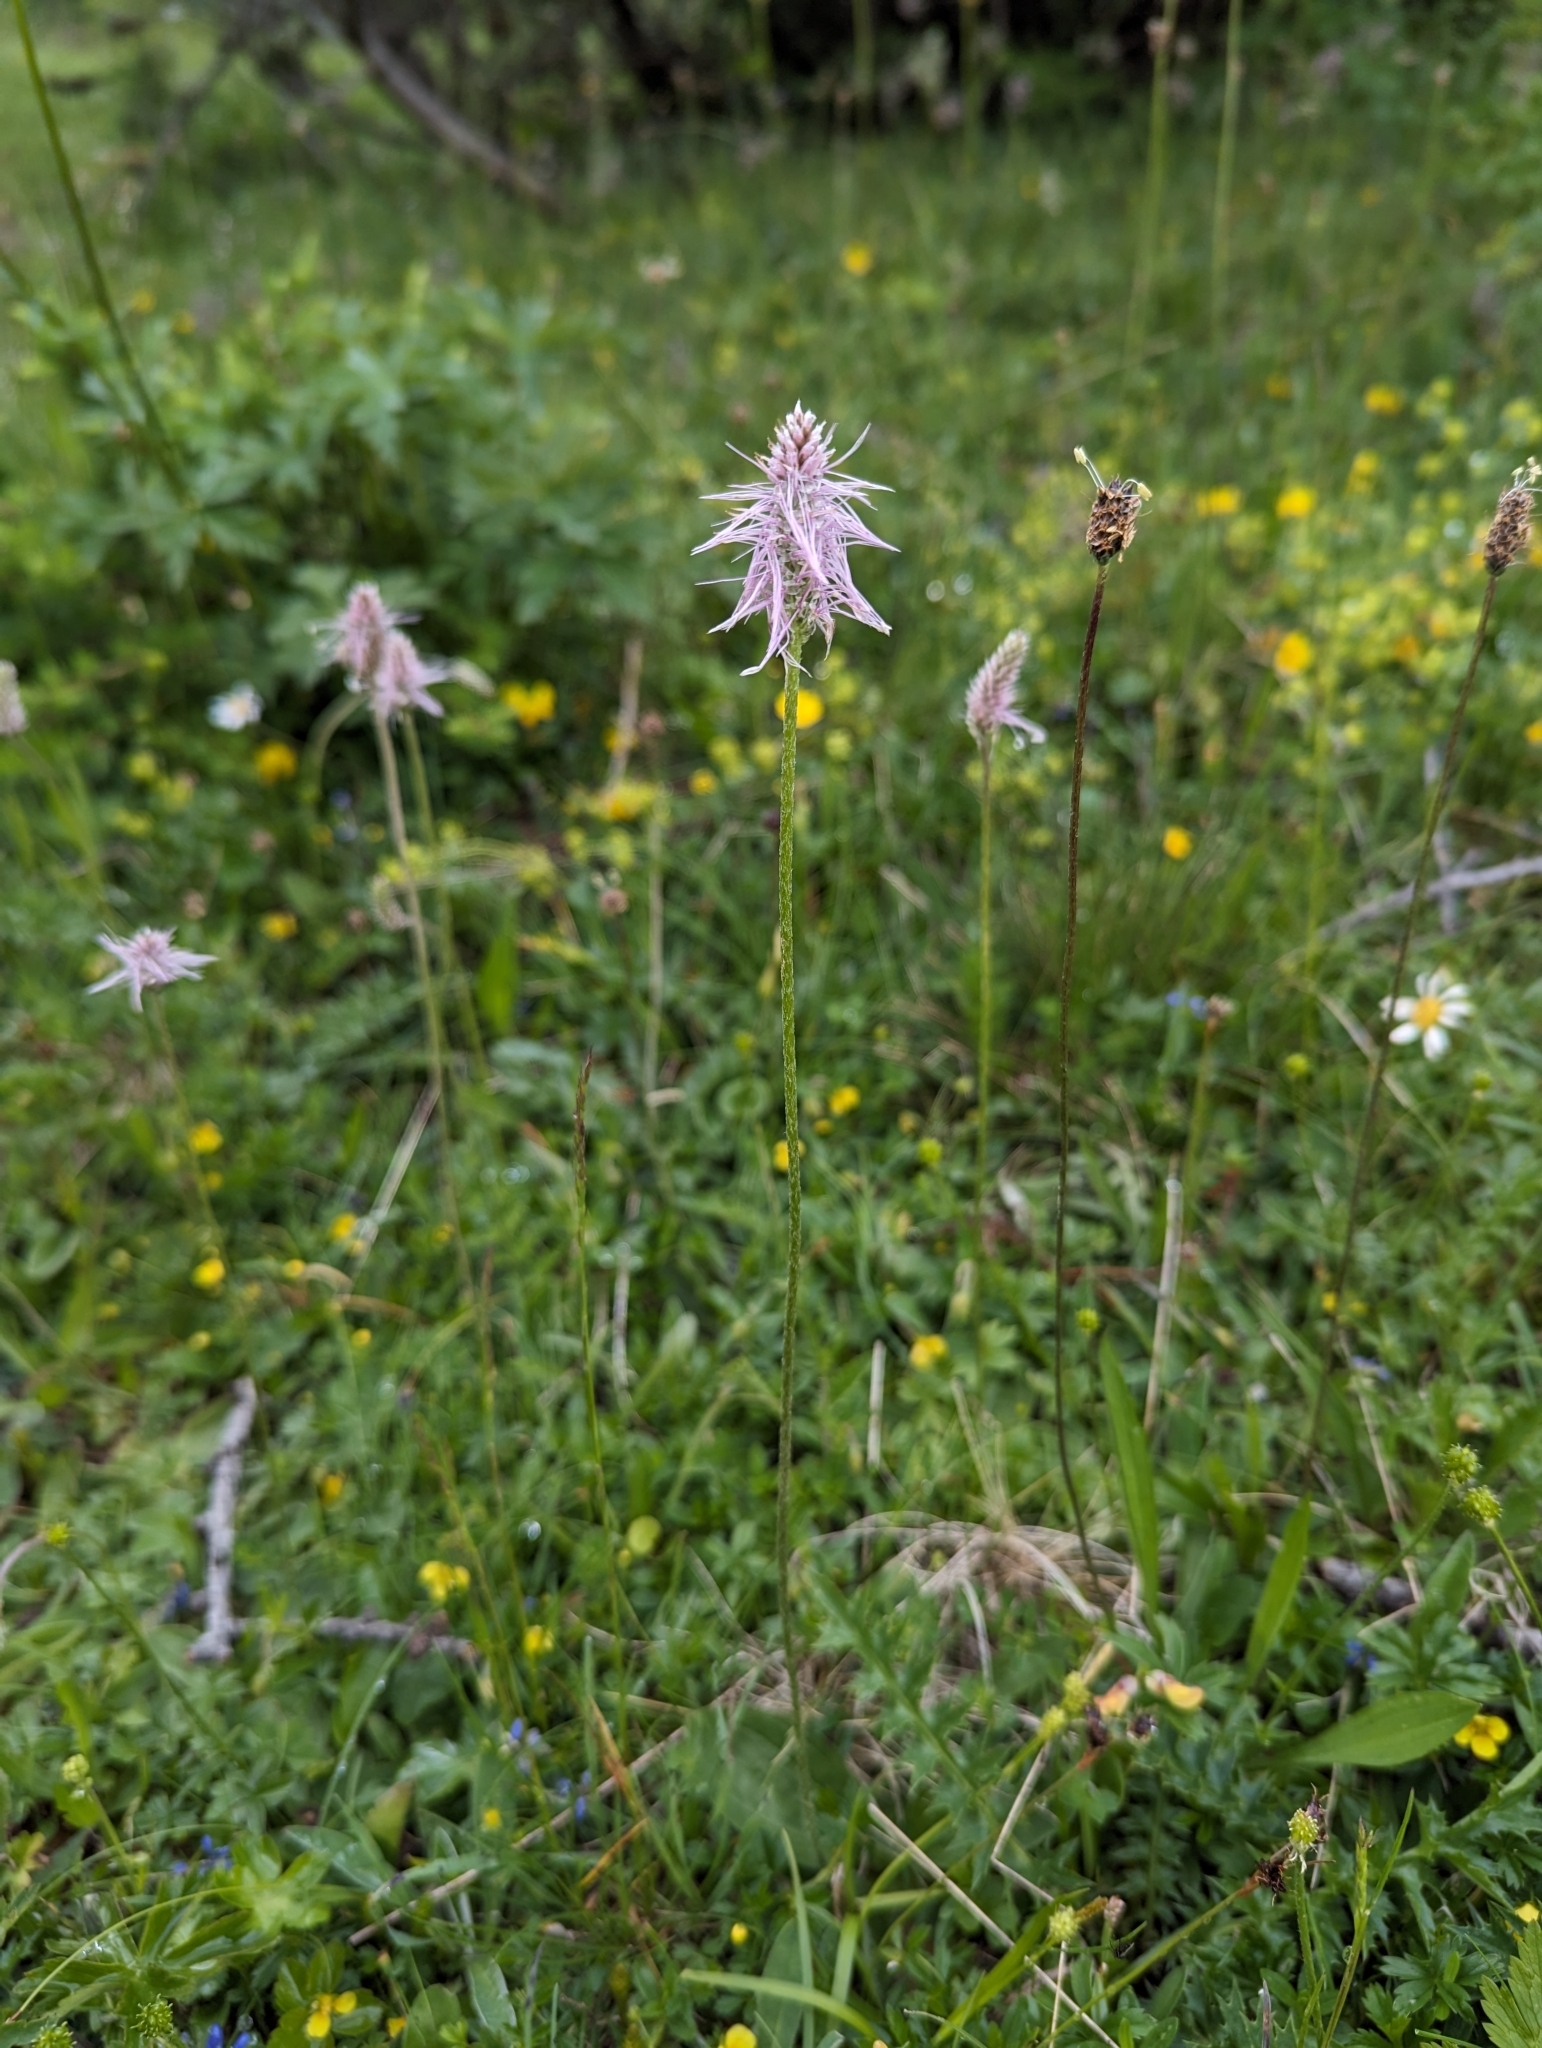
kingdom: Plantae
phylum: Tracheophyta
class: Magnoliopsida
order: Lamiales
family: Plantaginaceae
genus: Plantago
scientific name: Plantago media
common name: Hoary plantain
